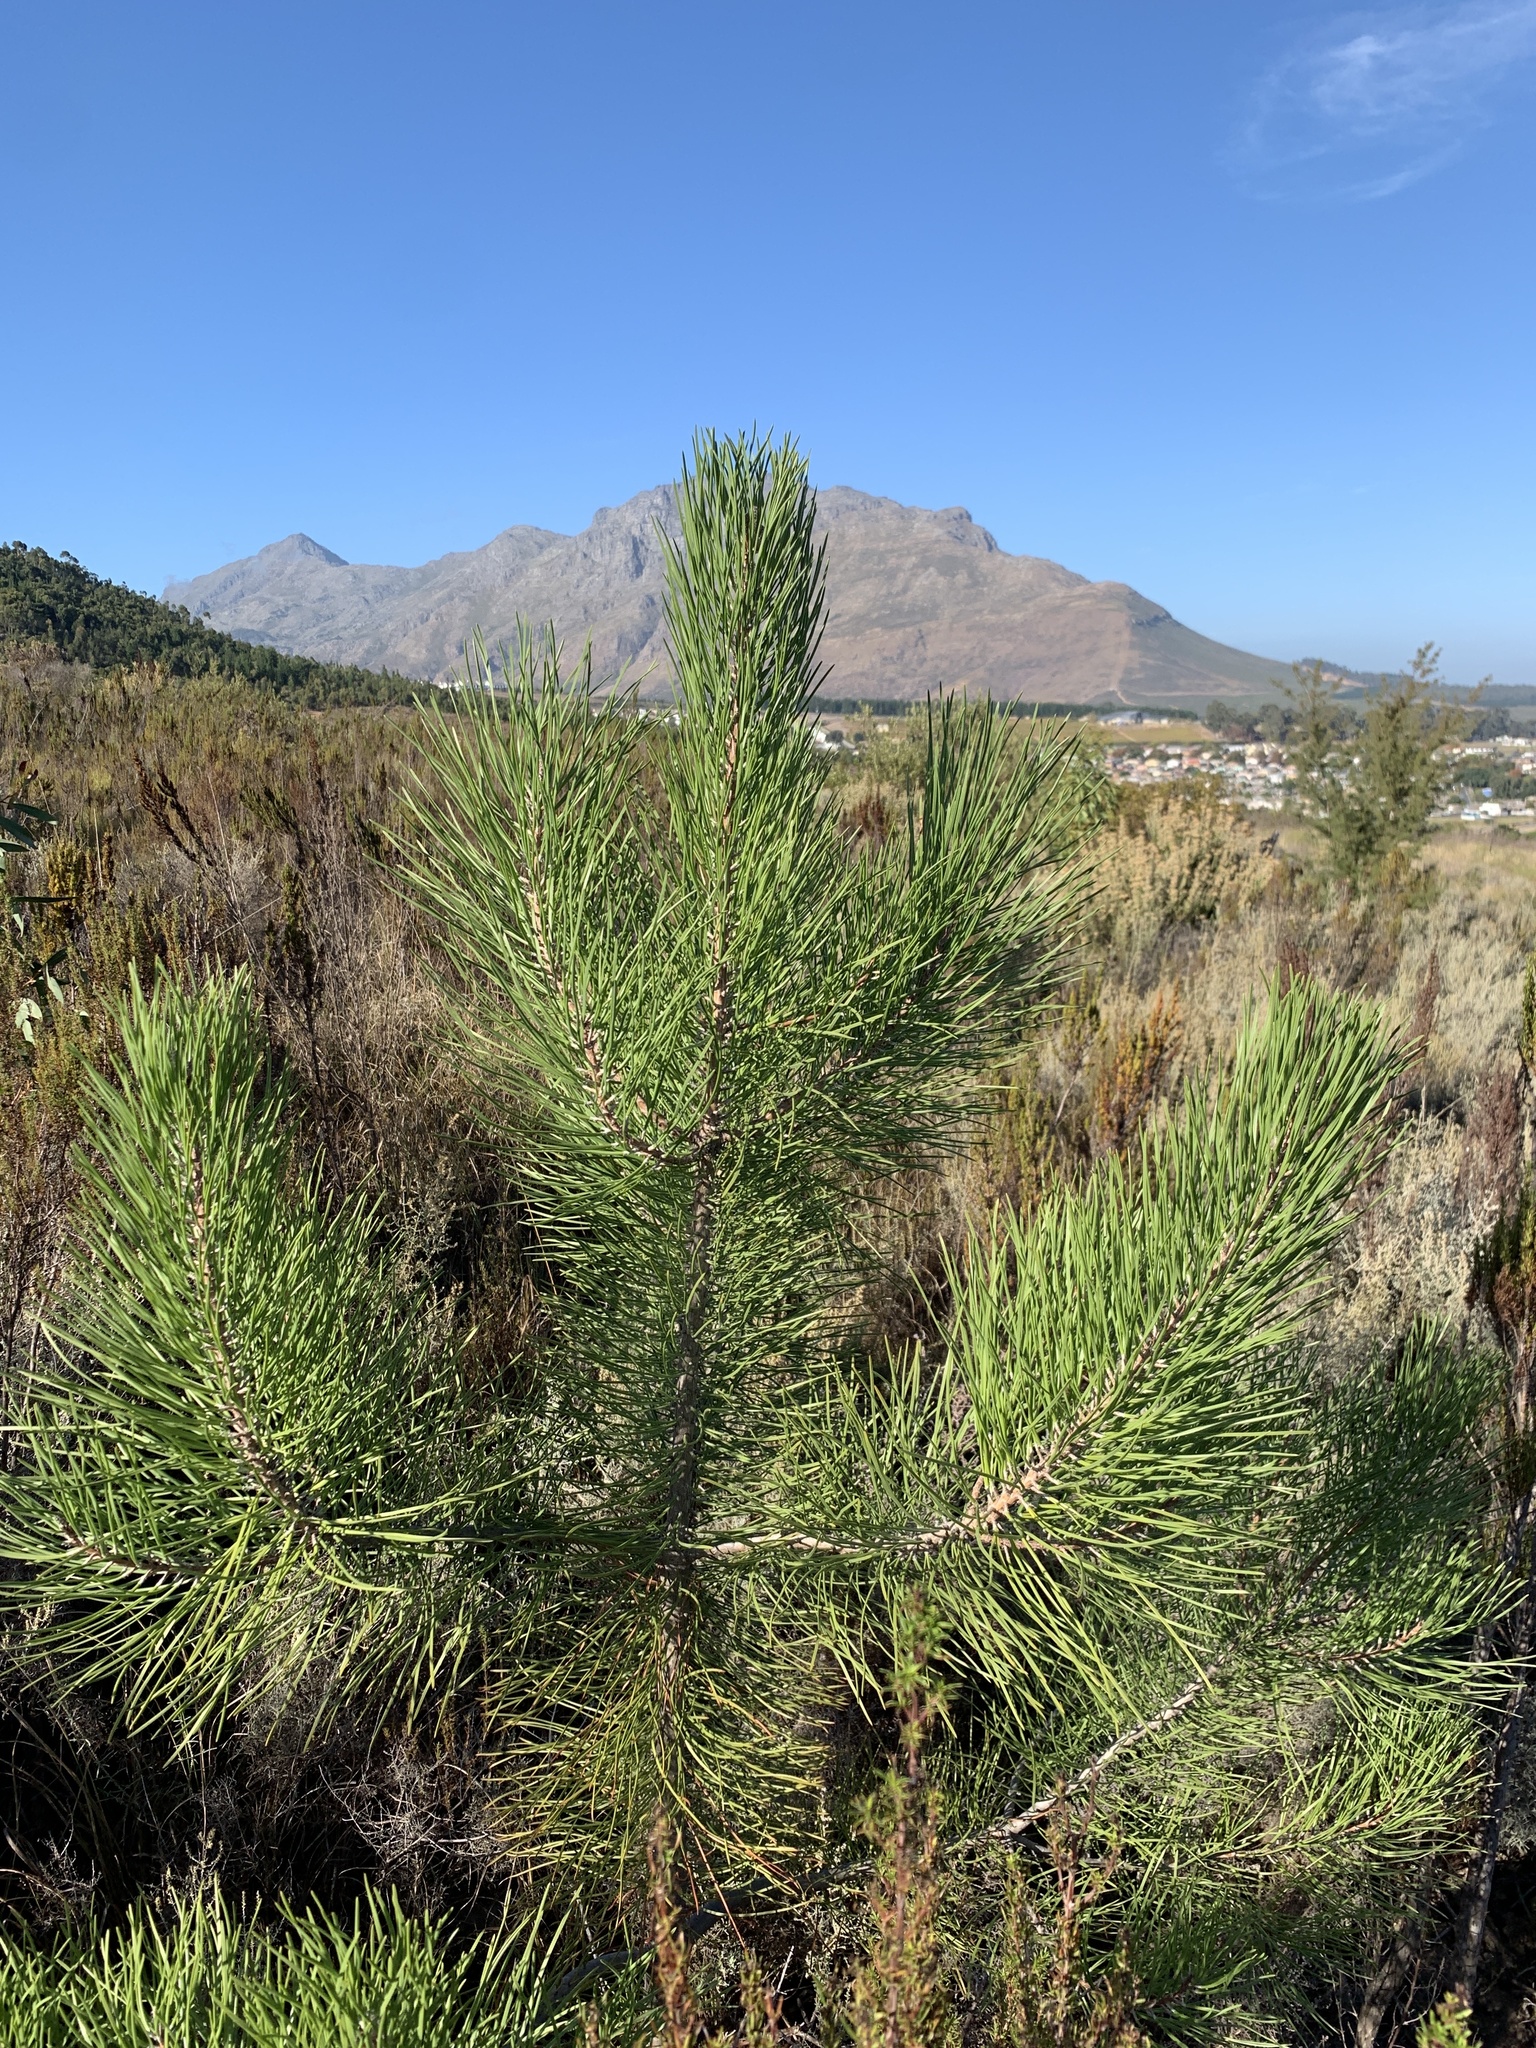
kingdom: Plantae
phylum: Tracheophyta
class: Pinopsida
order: Pinales
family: Pinaceae
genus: Pinus
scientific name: Pinus pinaster
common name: Maritime pine
